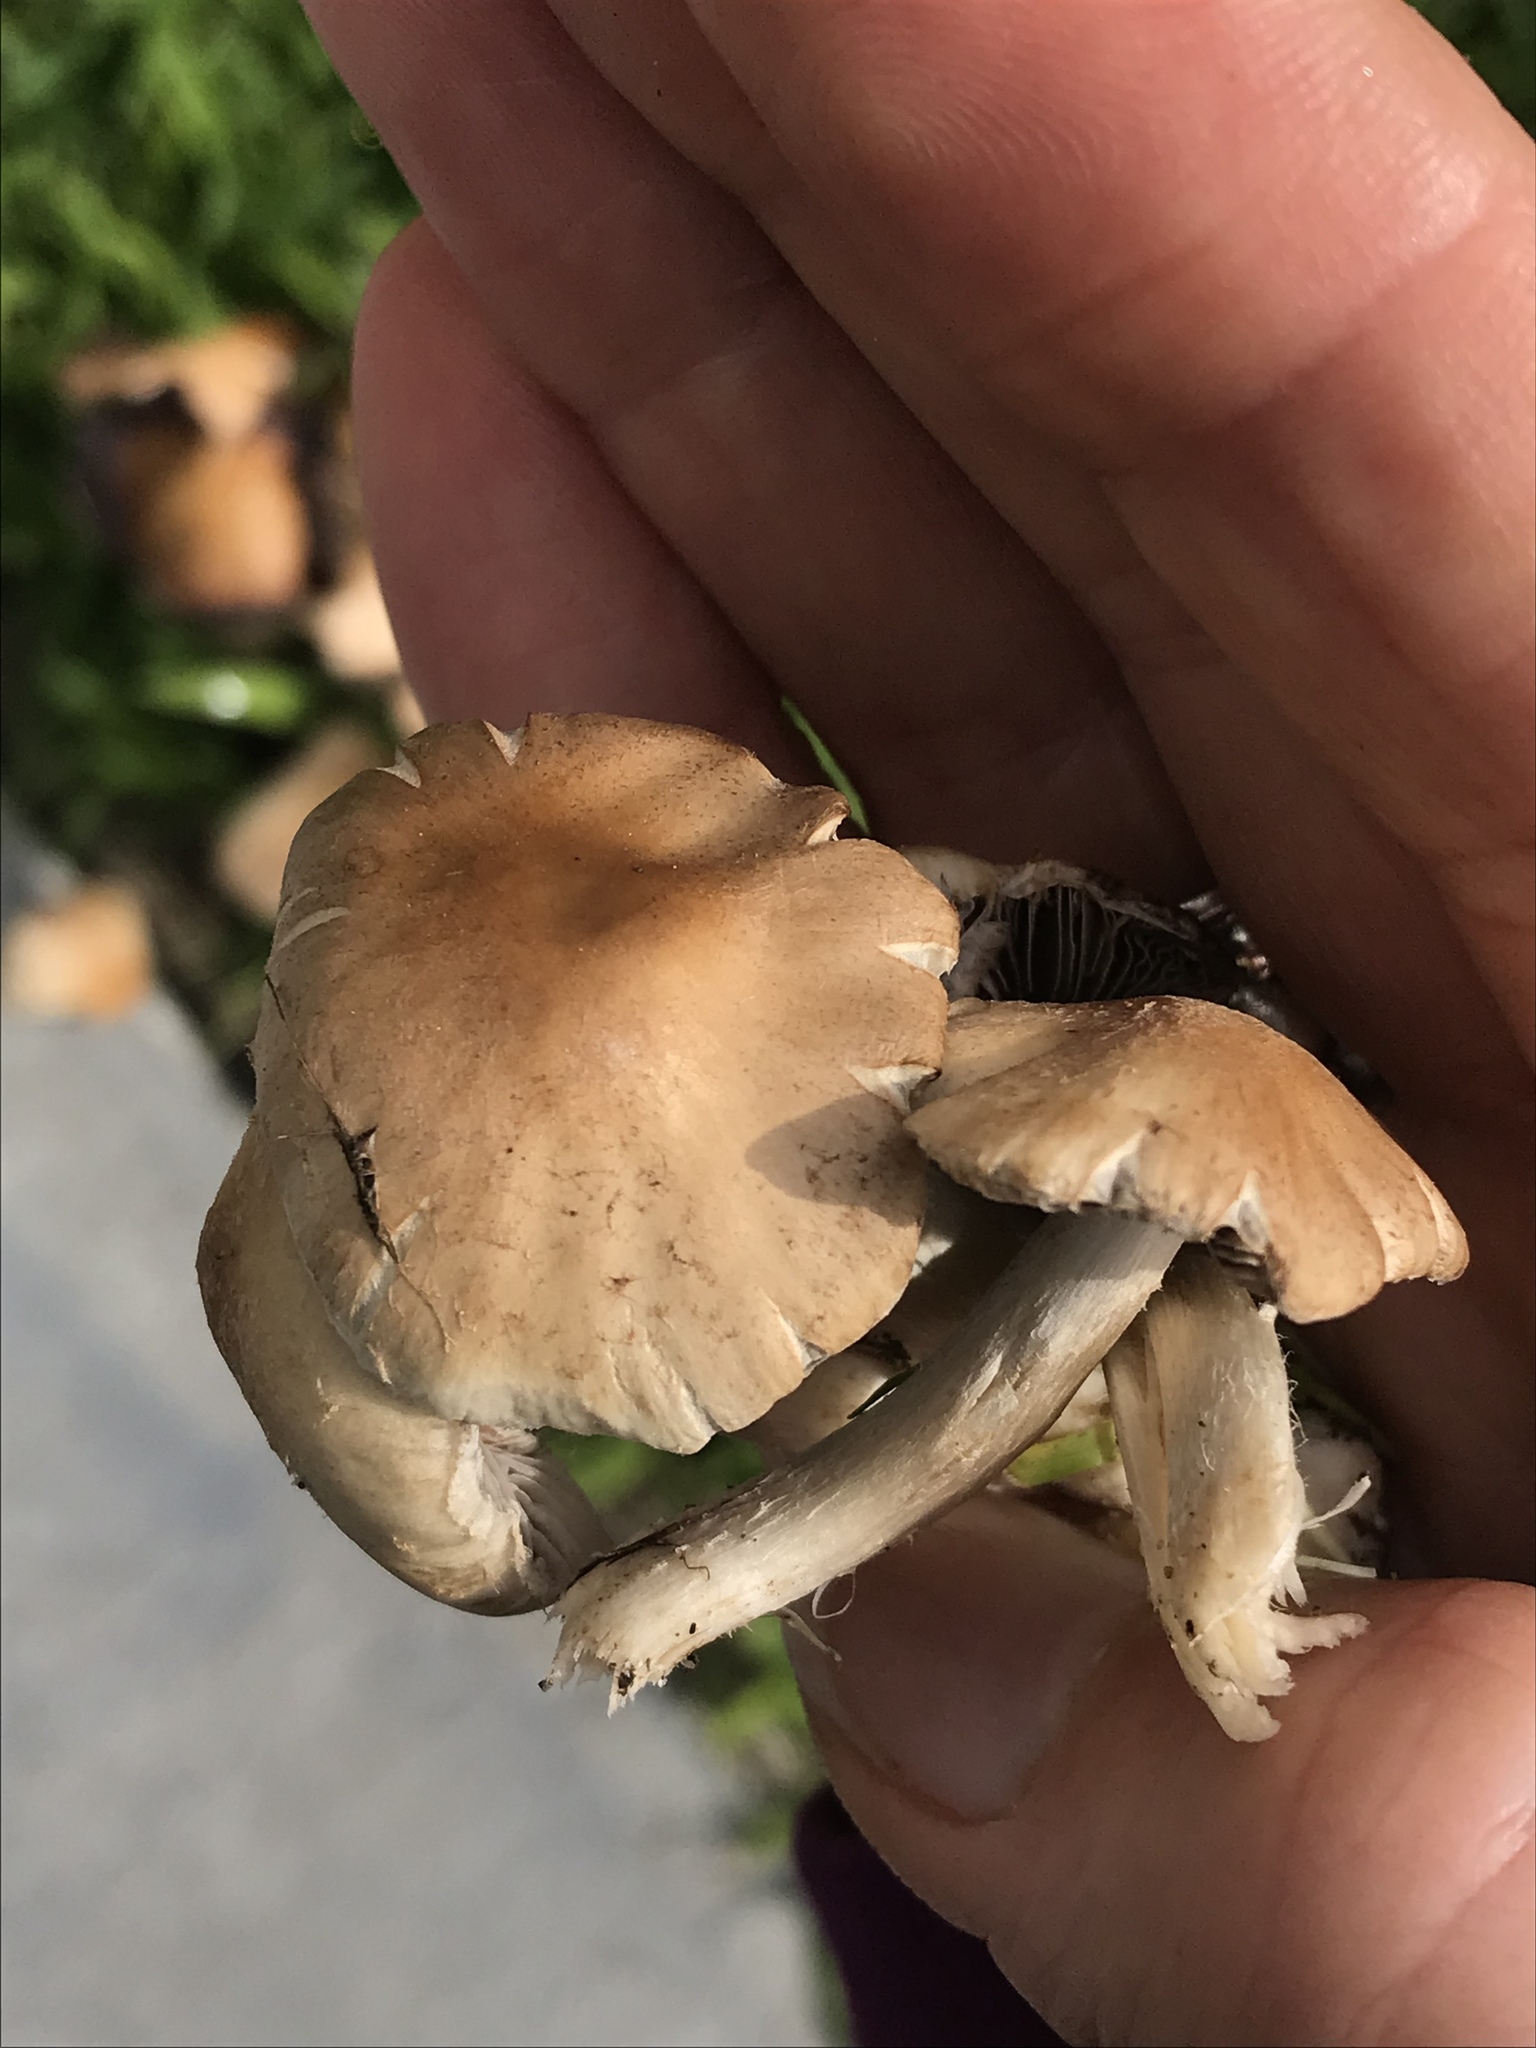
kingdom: Fungi
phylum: Basidiomycota
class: Agaricomycetes
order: Agaricales
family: Psathyrellaceae
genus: Candolleomyces
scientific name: Candolleomyces candolleanus
